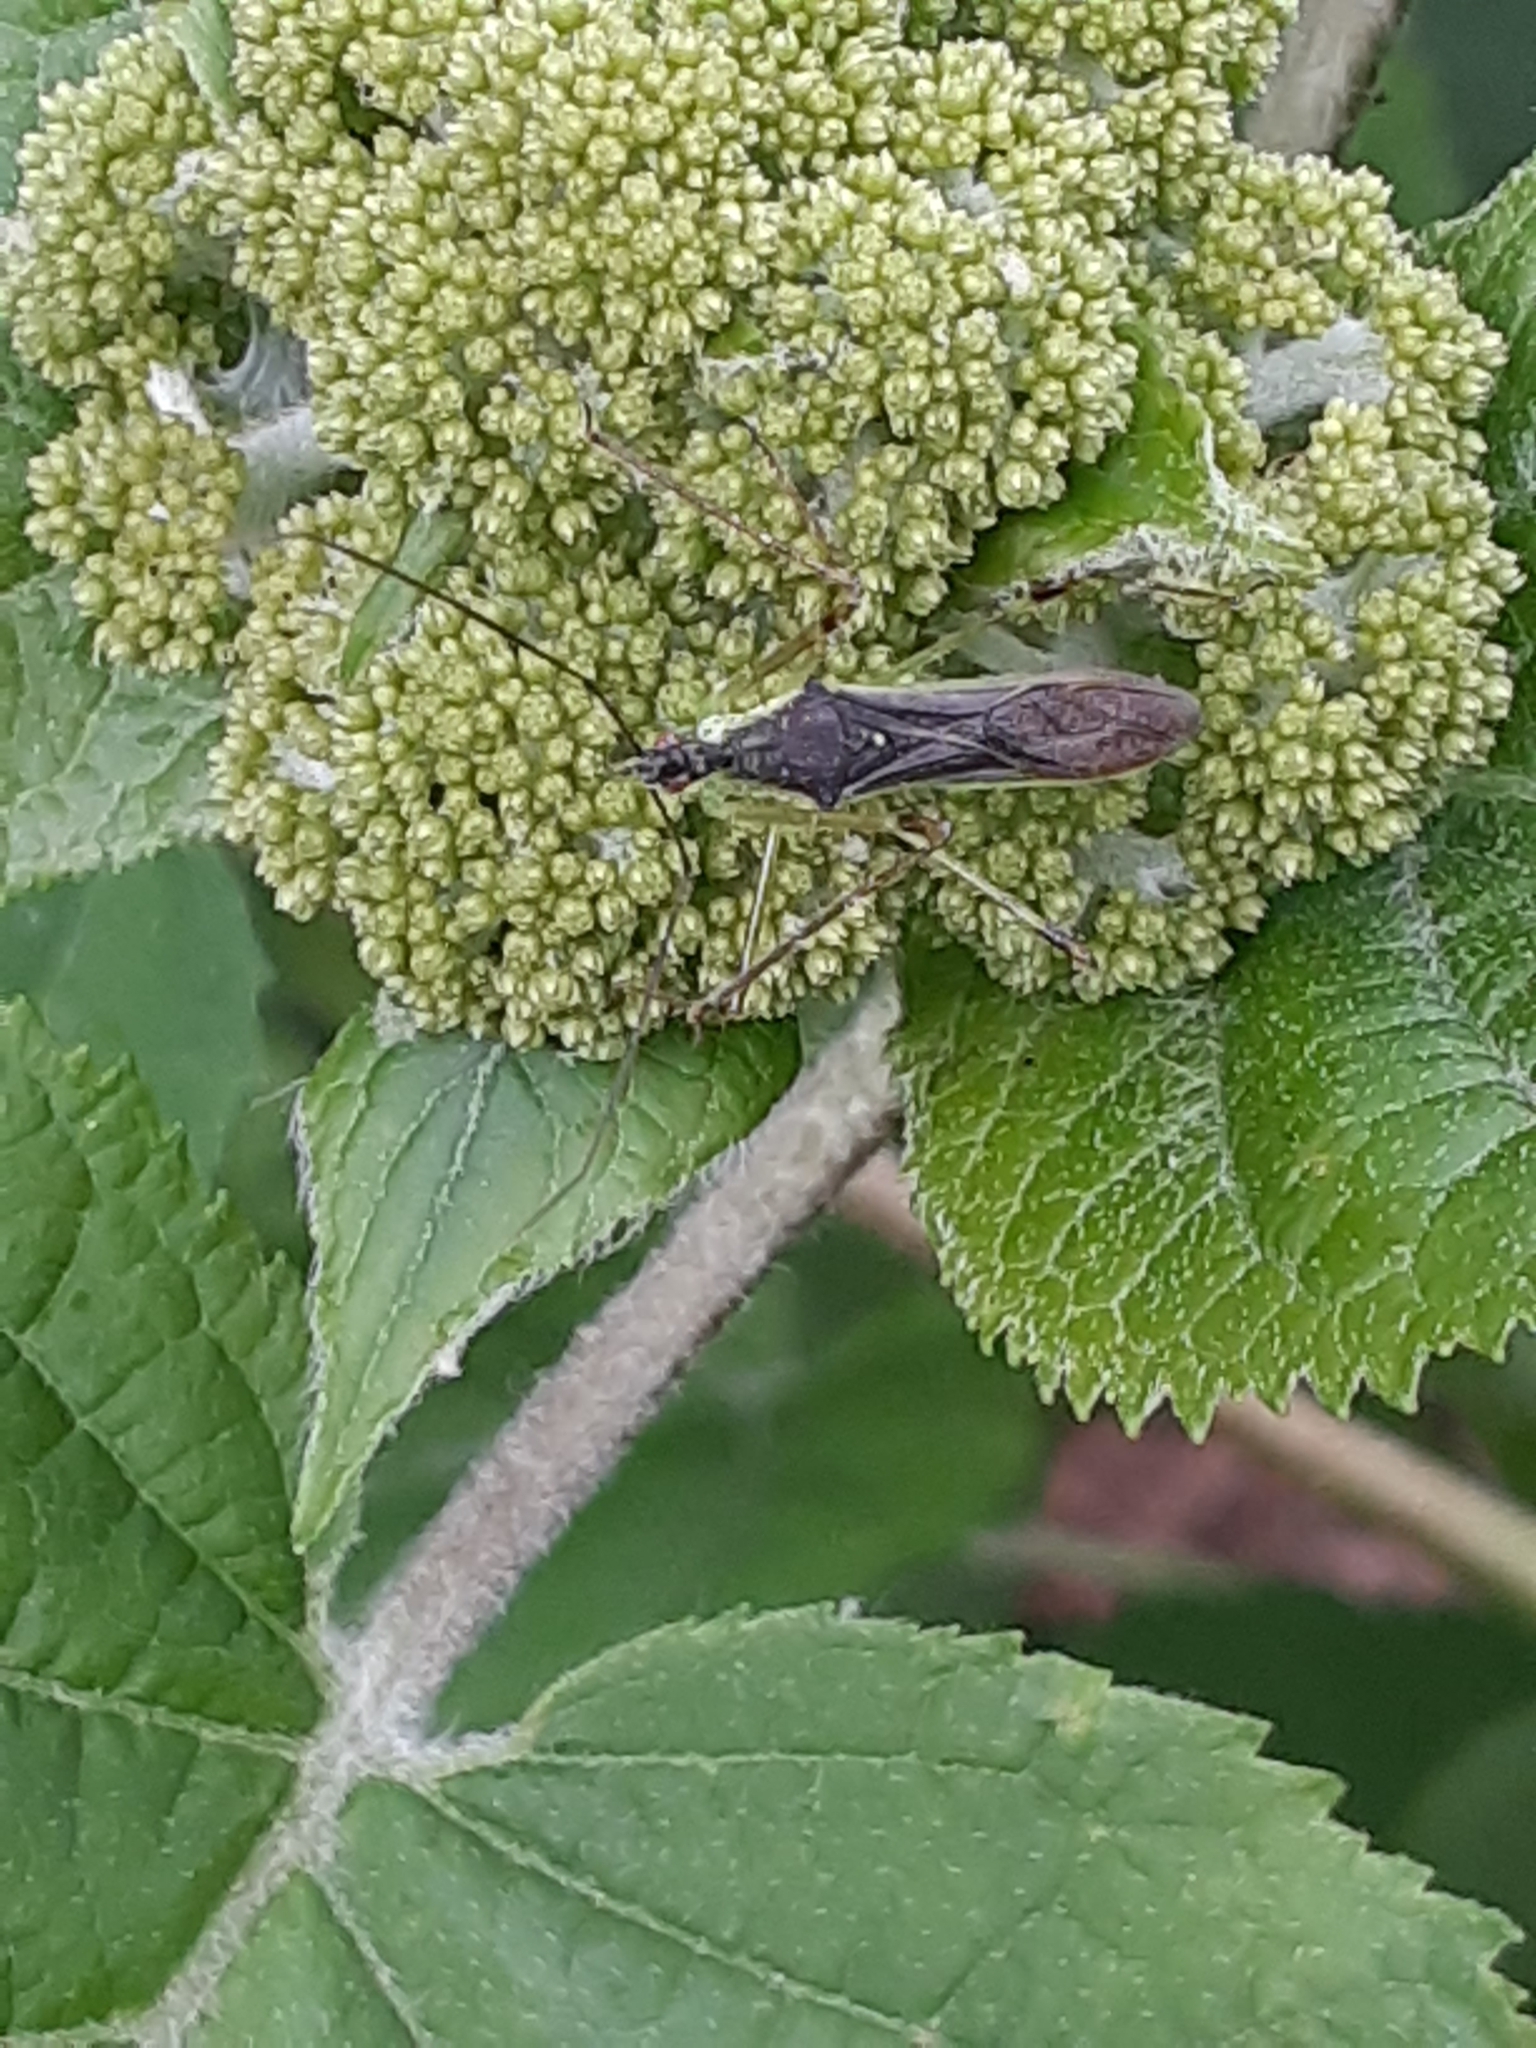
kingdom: Animalia
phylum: Arthropoda
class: Insecta
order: Hemiptera
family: Reduviidae
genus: Zelus
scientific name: Zelus luridus
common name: Pale green assassin bug
